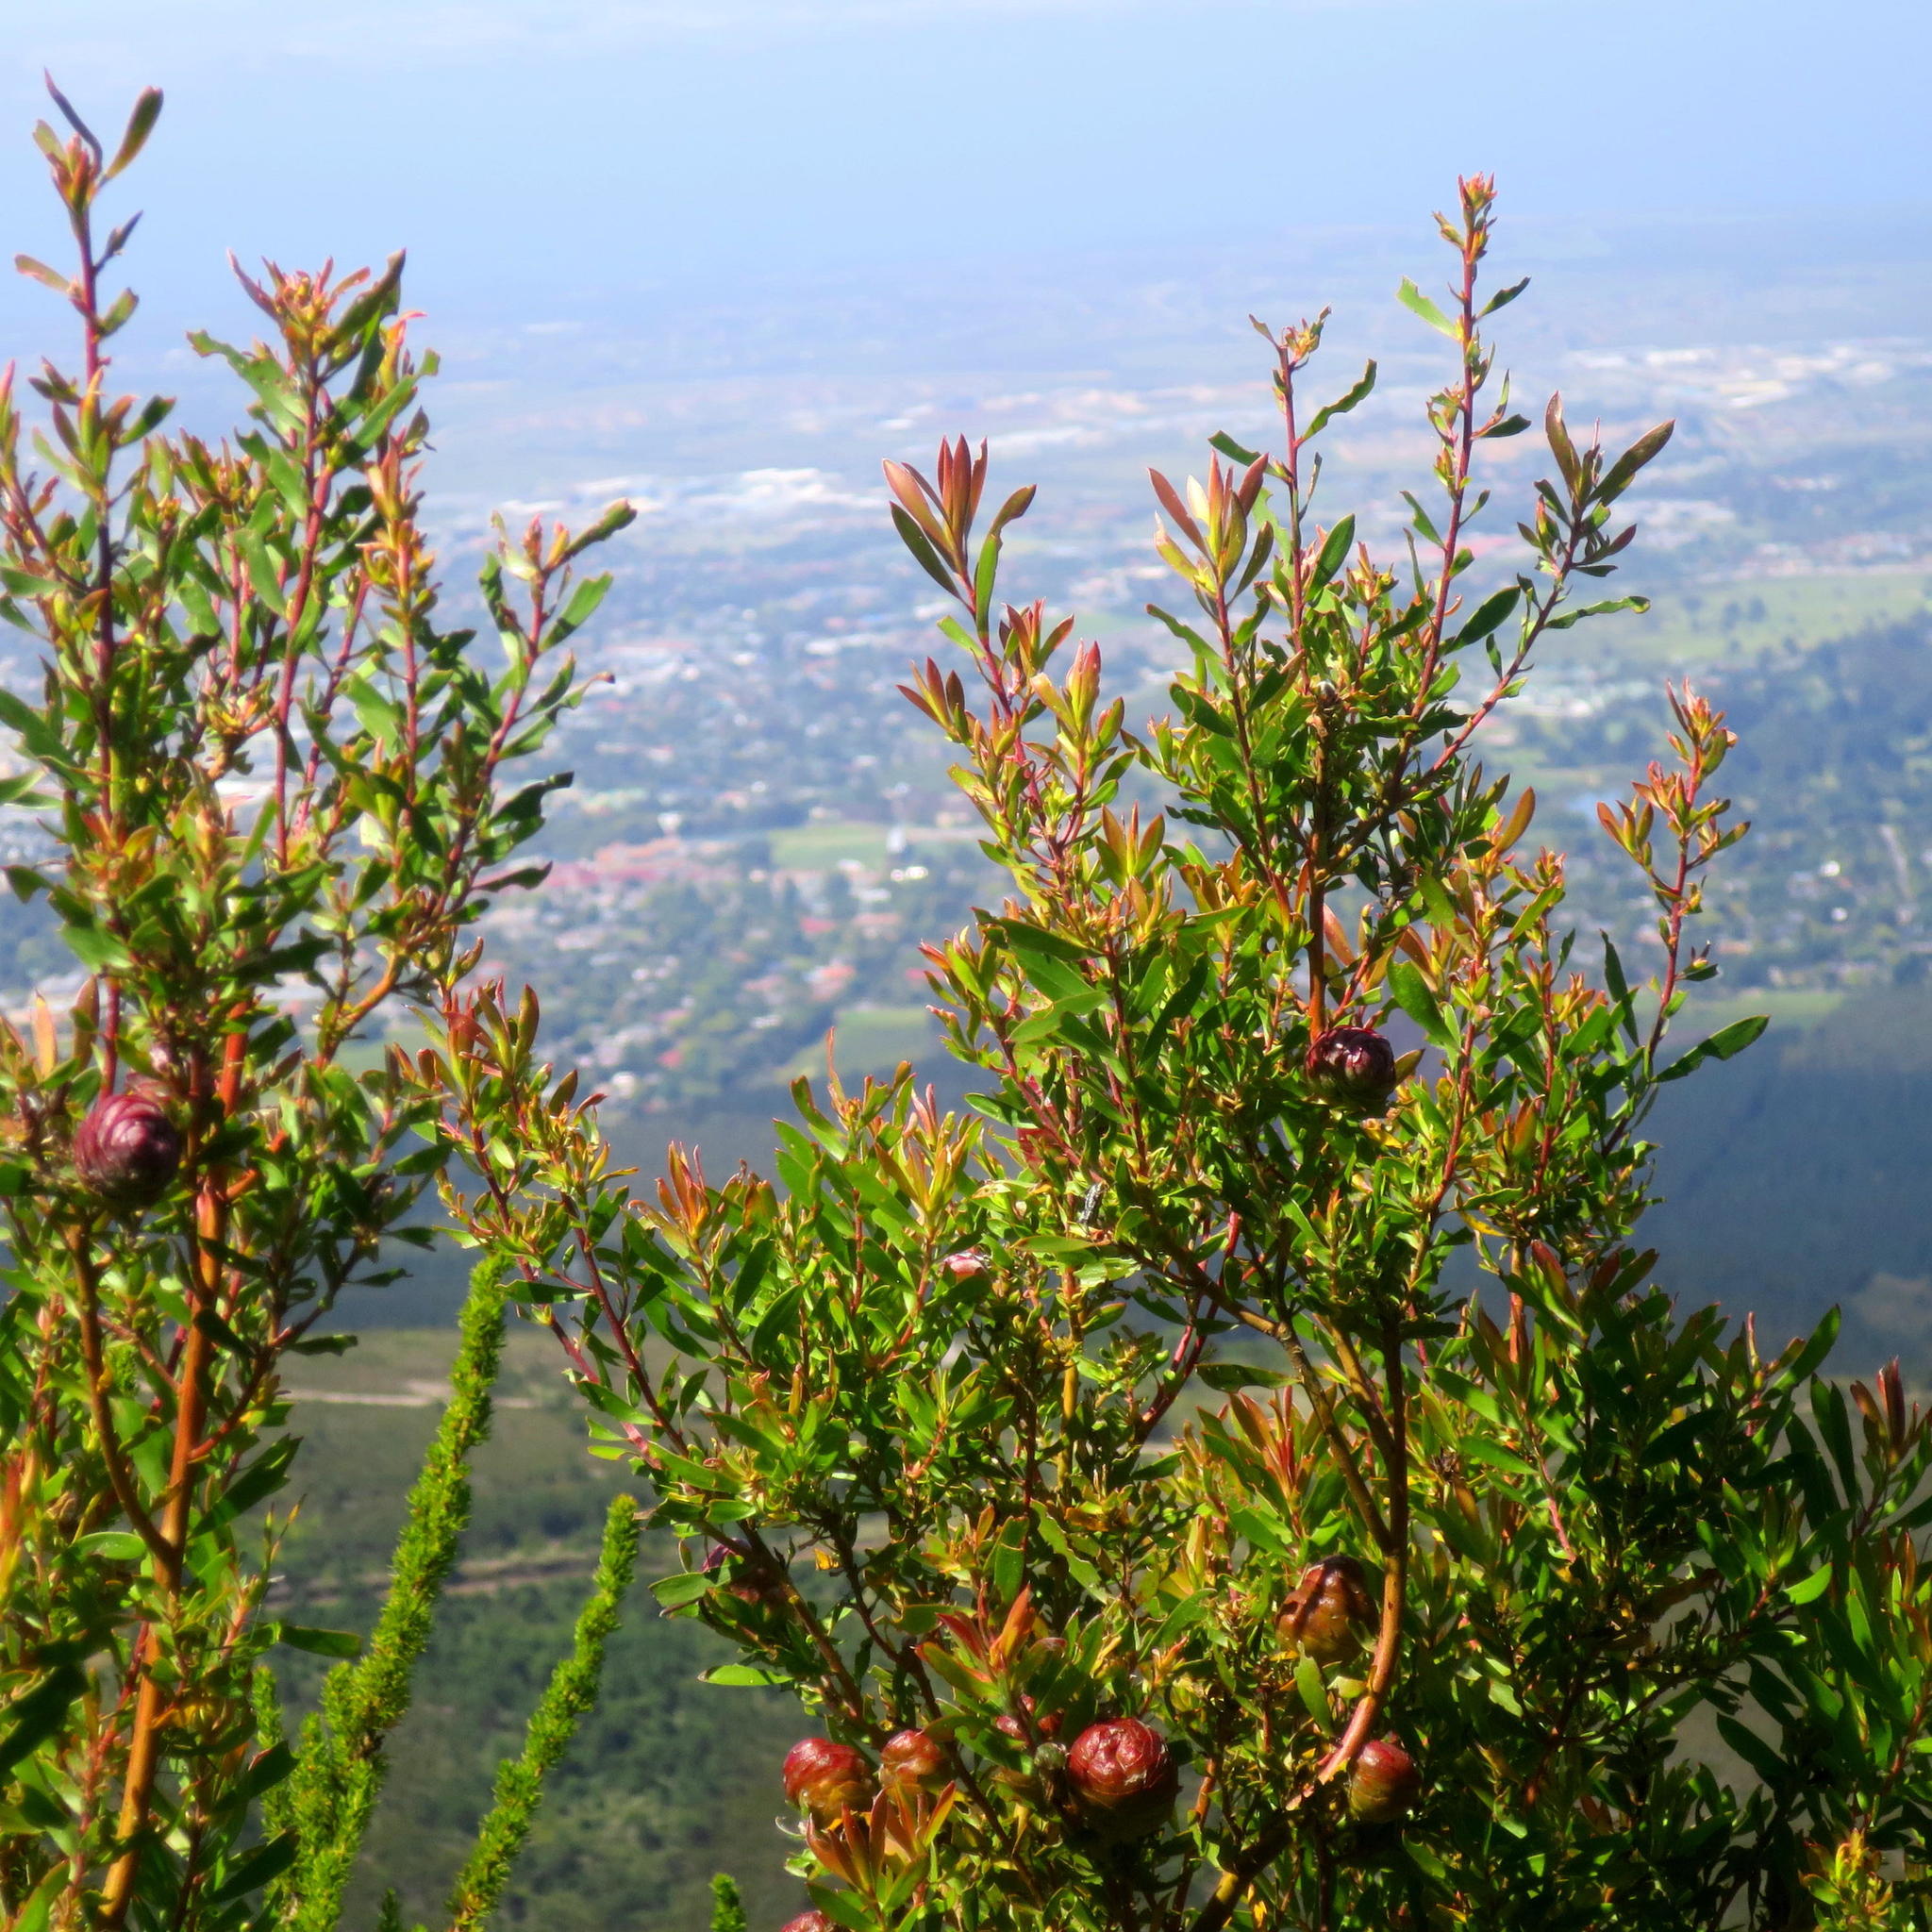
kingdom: Plantae
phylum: Tracheophyta
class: Magnoliopsida
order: Proteales
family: Proteaceae
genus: Leucadendron
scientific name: Leucadendron conicum
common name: Garden route conebush
